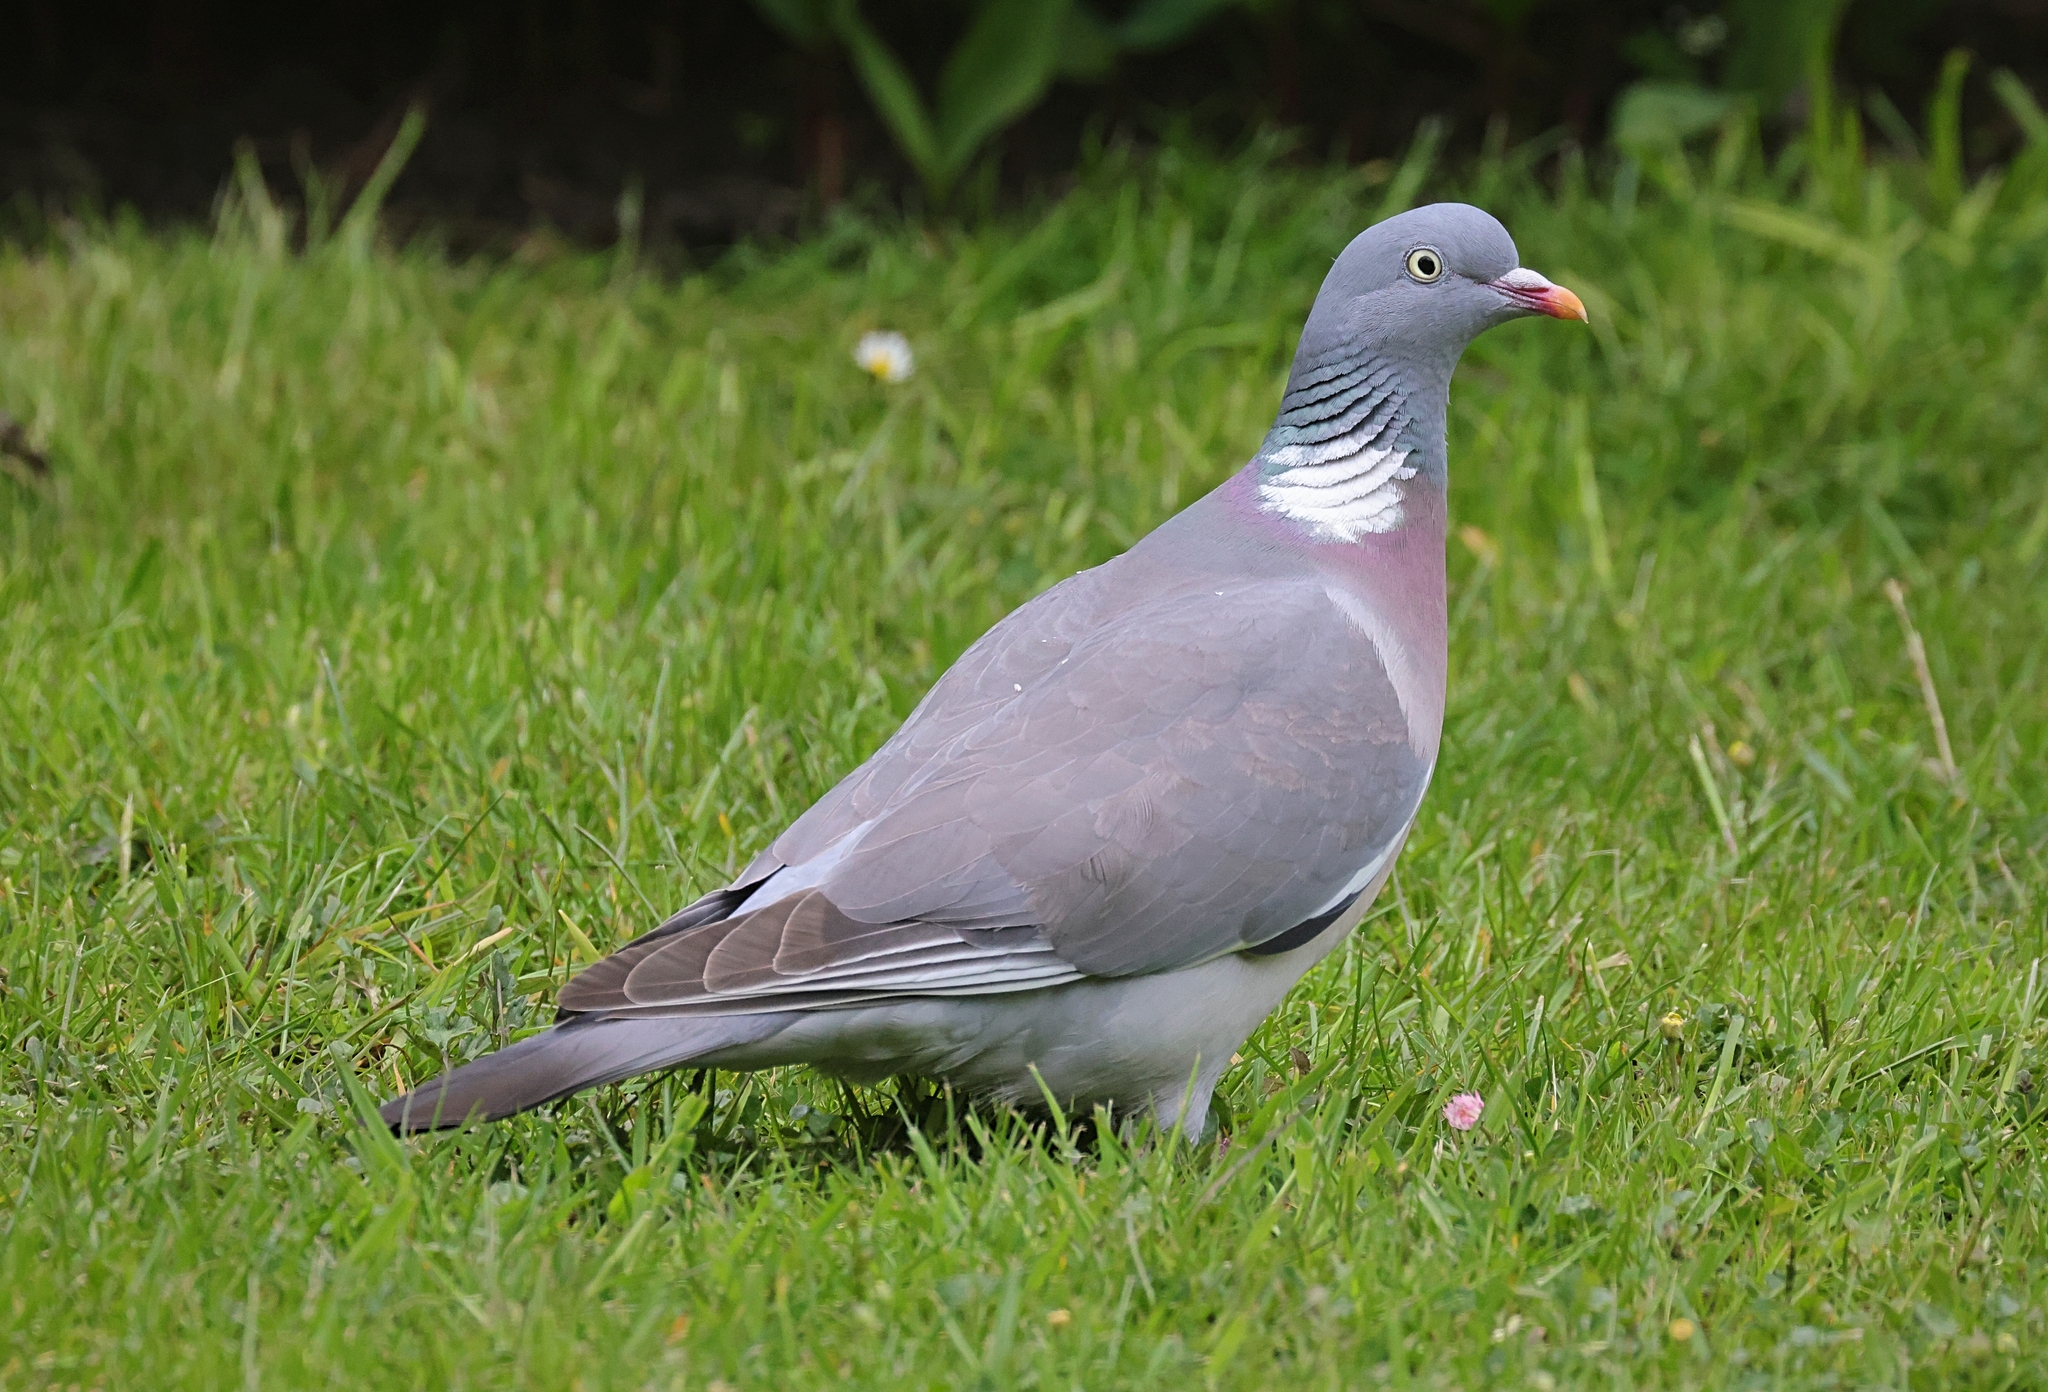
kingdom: Animalia
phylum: Chordata
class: Aves
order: Columbiformes
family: Columbidae
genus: Columba
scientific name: Columba palumbus
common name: Common wood pigeon
